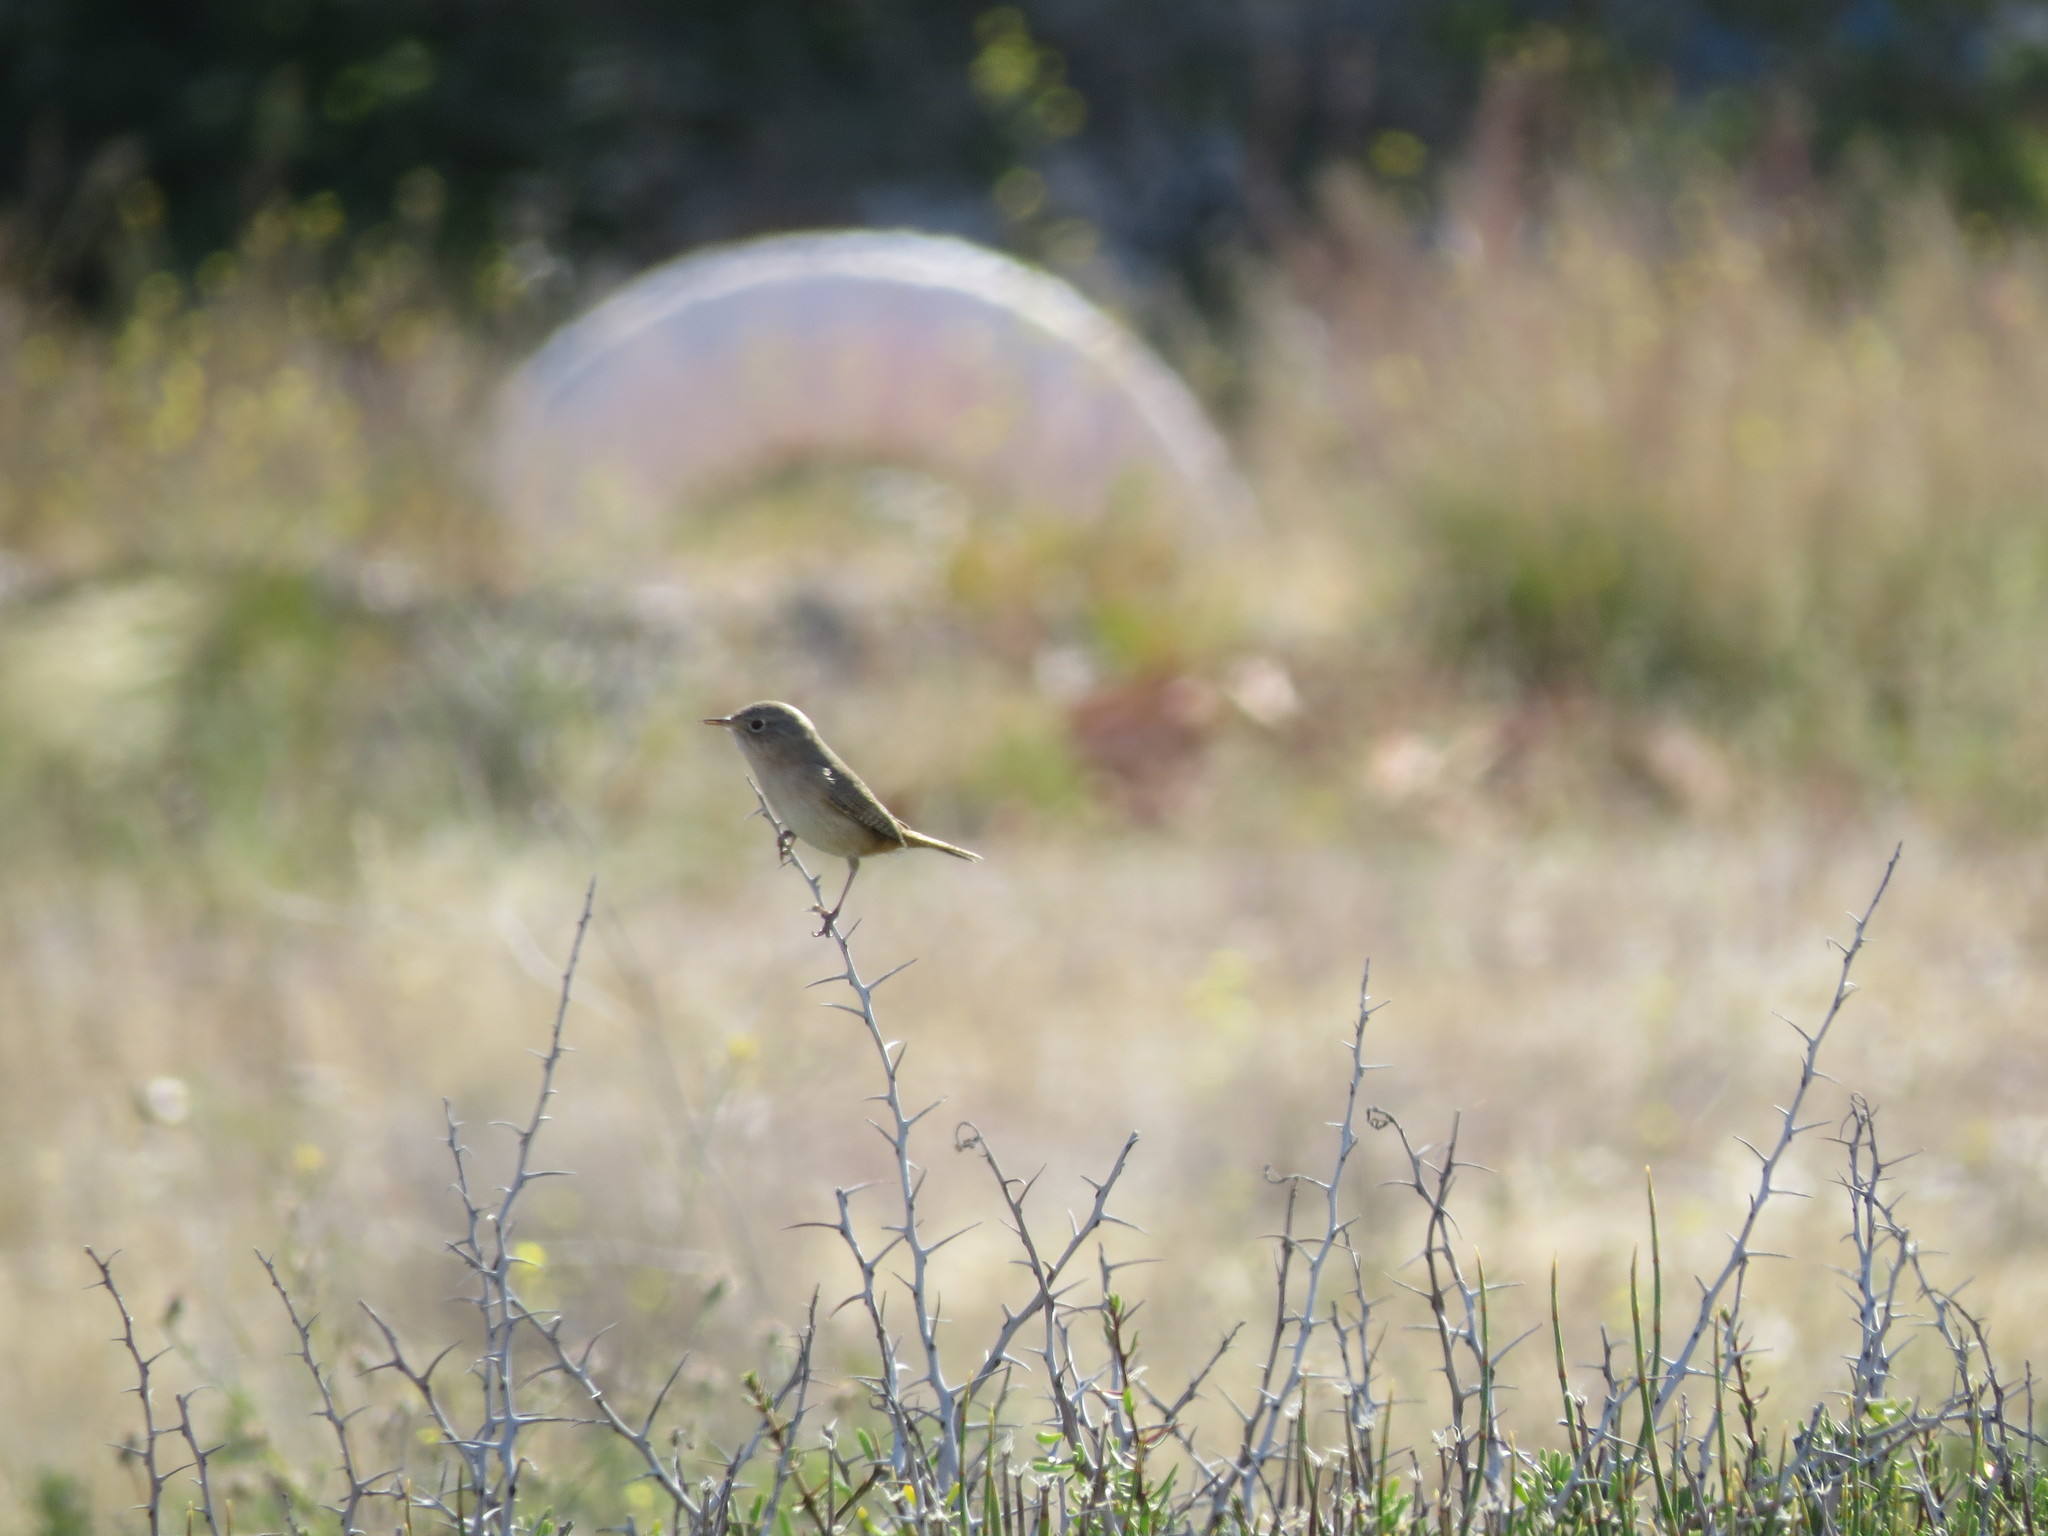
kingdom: Animalia
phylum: Chordata
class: Aves
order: Passeriformes
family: Troglodytidae
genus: Troglodytes
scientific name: Troglodytes aedon
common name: House wren
